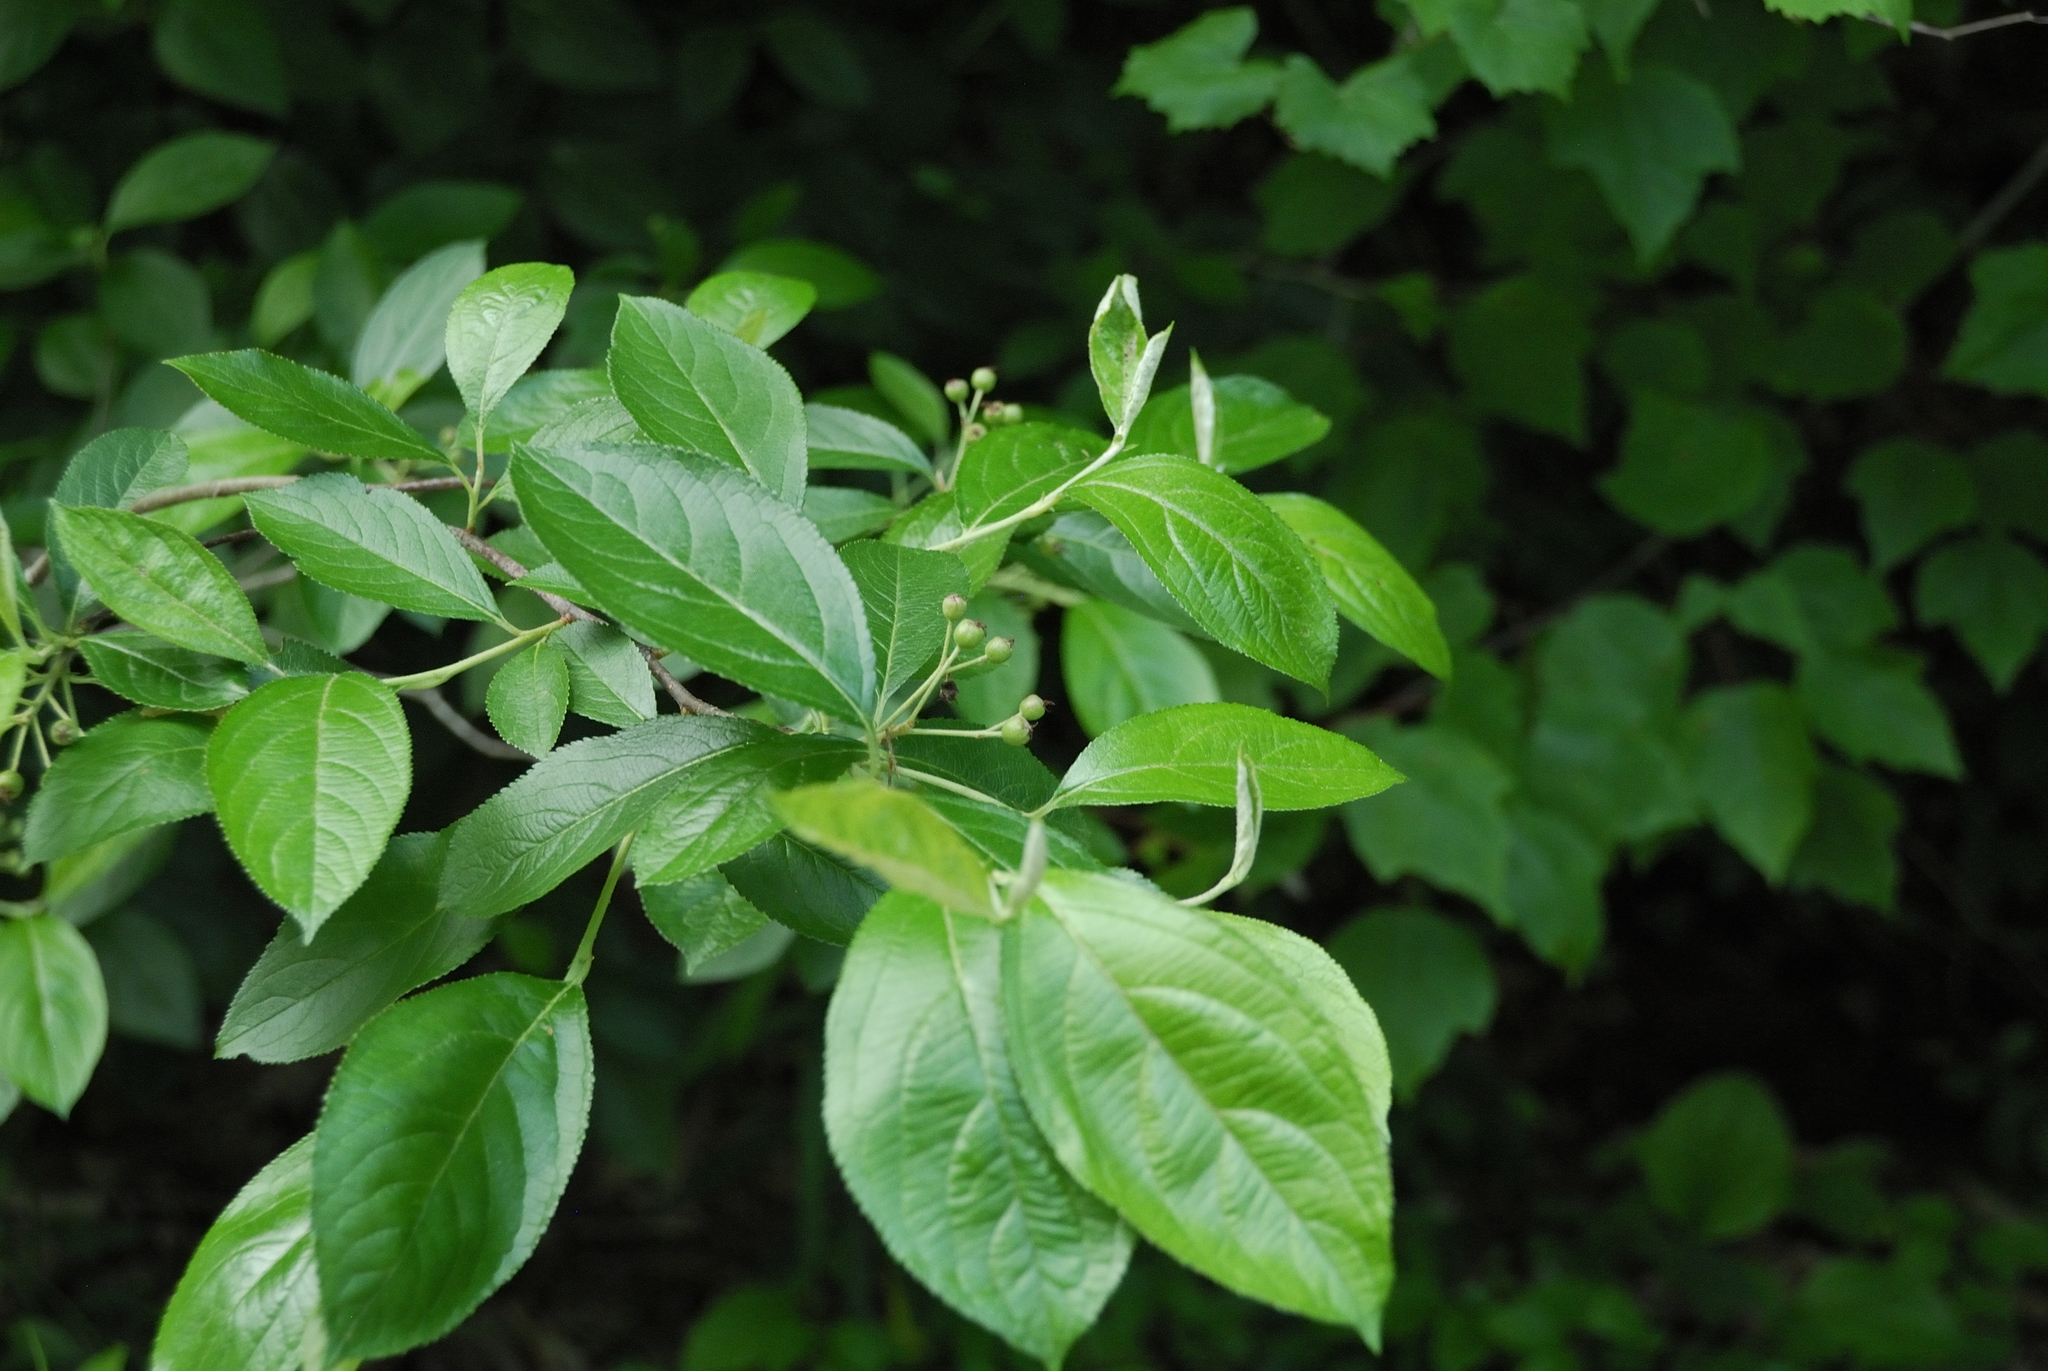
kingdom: Plantae
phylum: Tracheophyta
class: Magnoliopsida
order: Rosales
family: Rosaceae
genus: Aronia
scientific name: Aronia arbutifolia
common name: Red chokeberry
